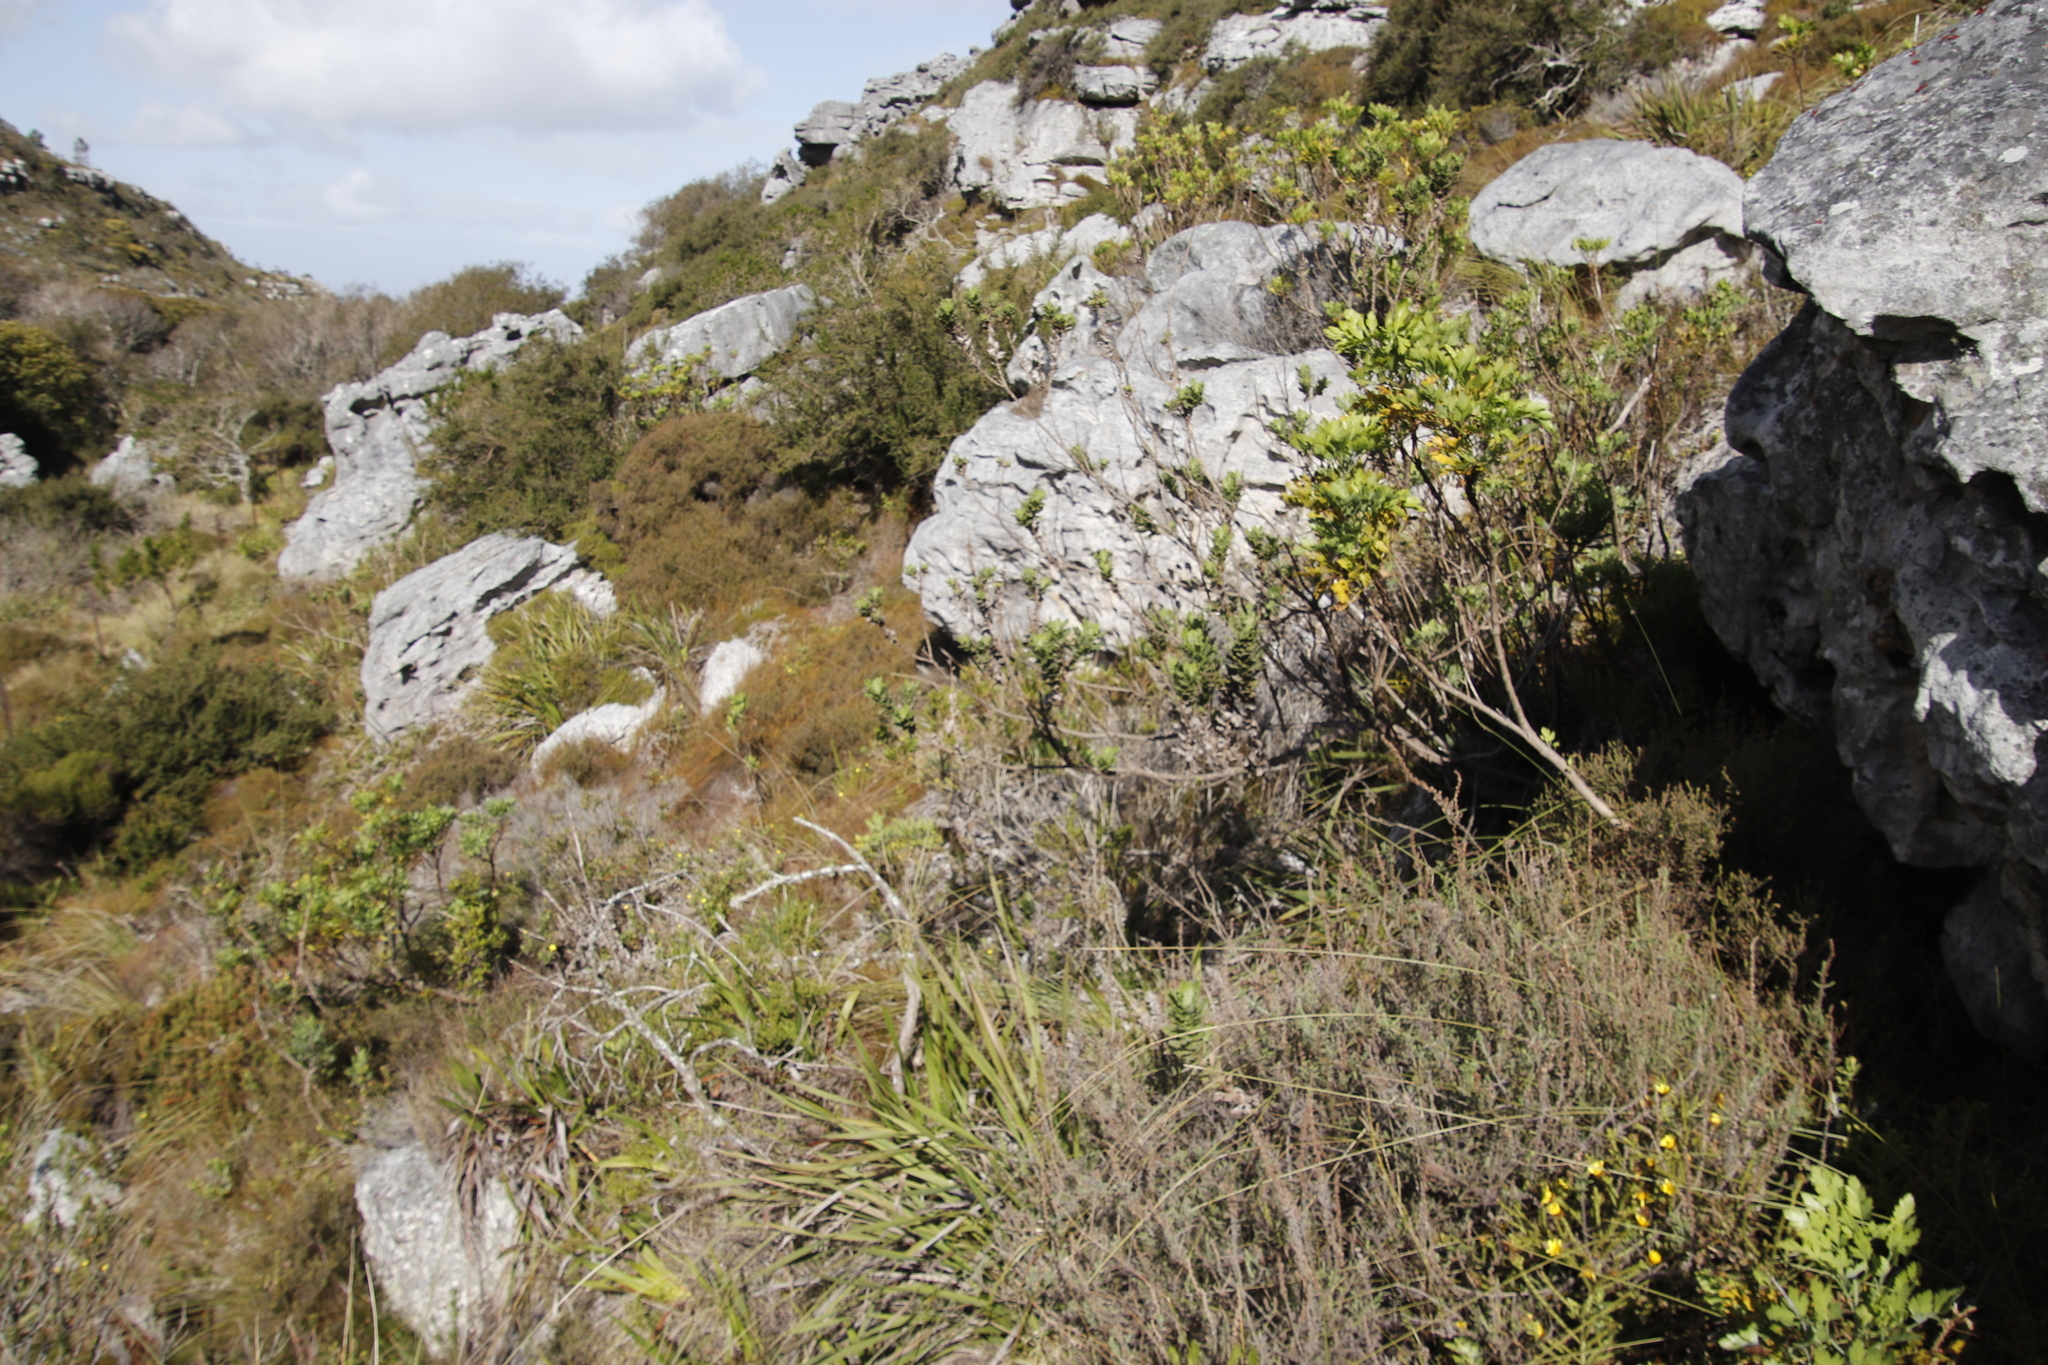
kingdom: Plantae
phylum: Tracheophyta
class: Magnoliopsida
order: Asterales
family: Asteraceae
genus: Senecio
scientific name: Senecio rigidus
